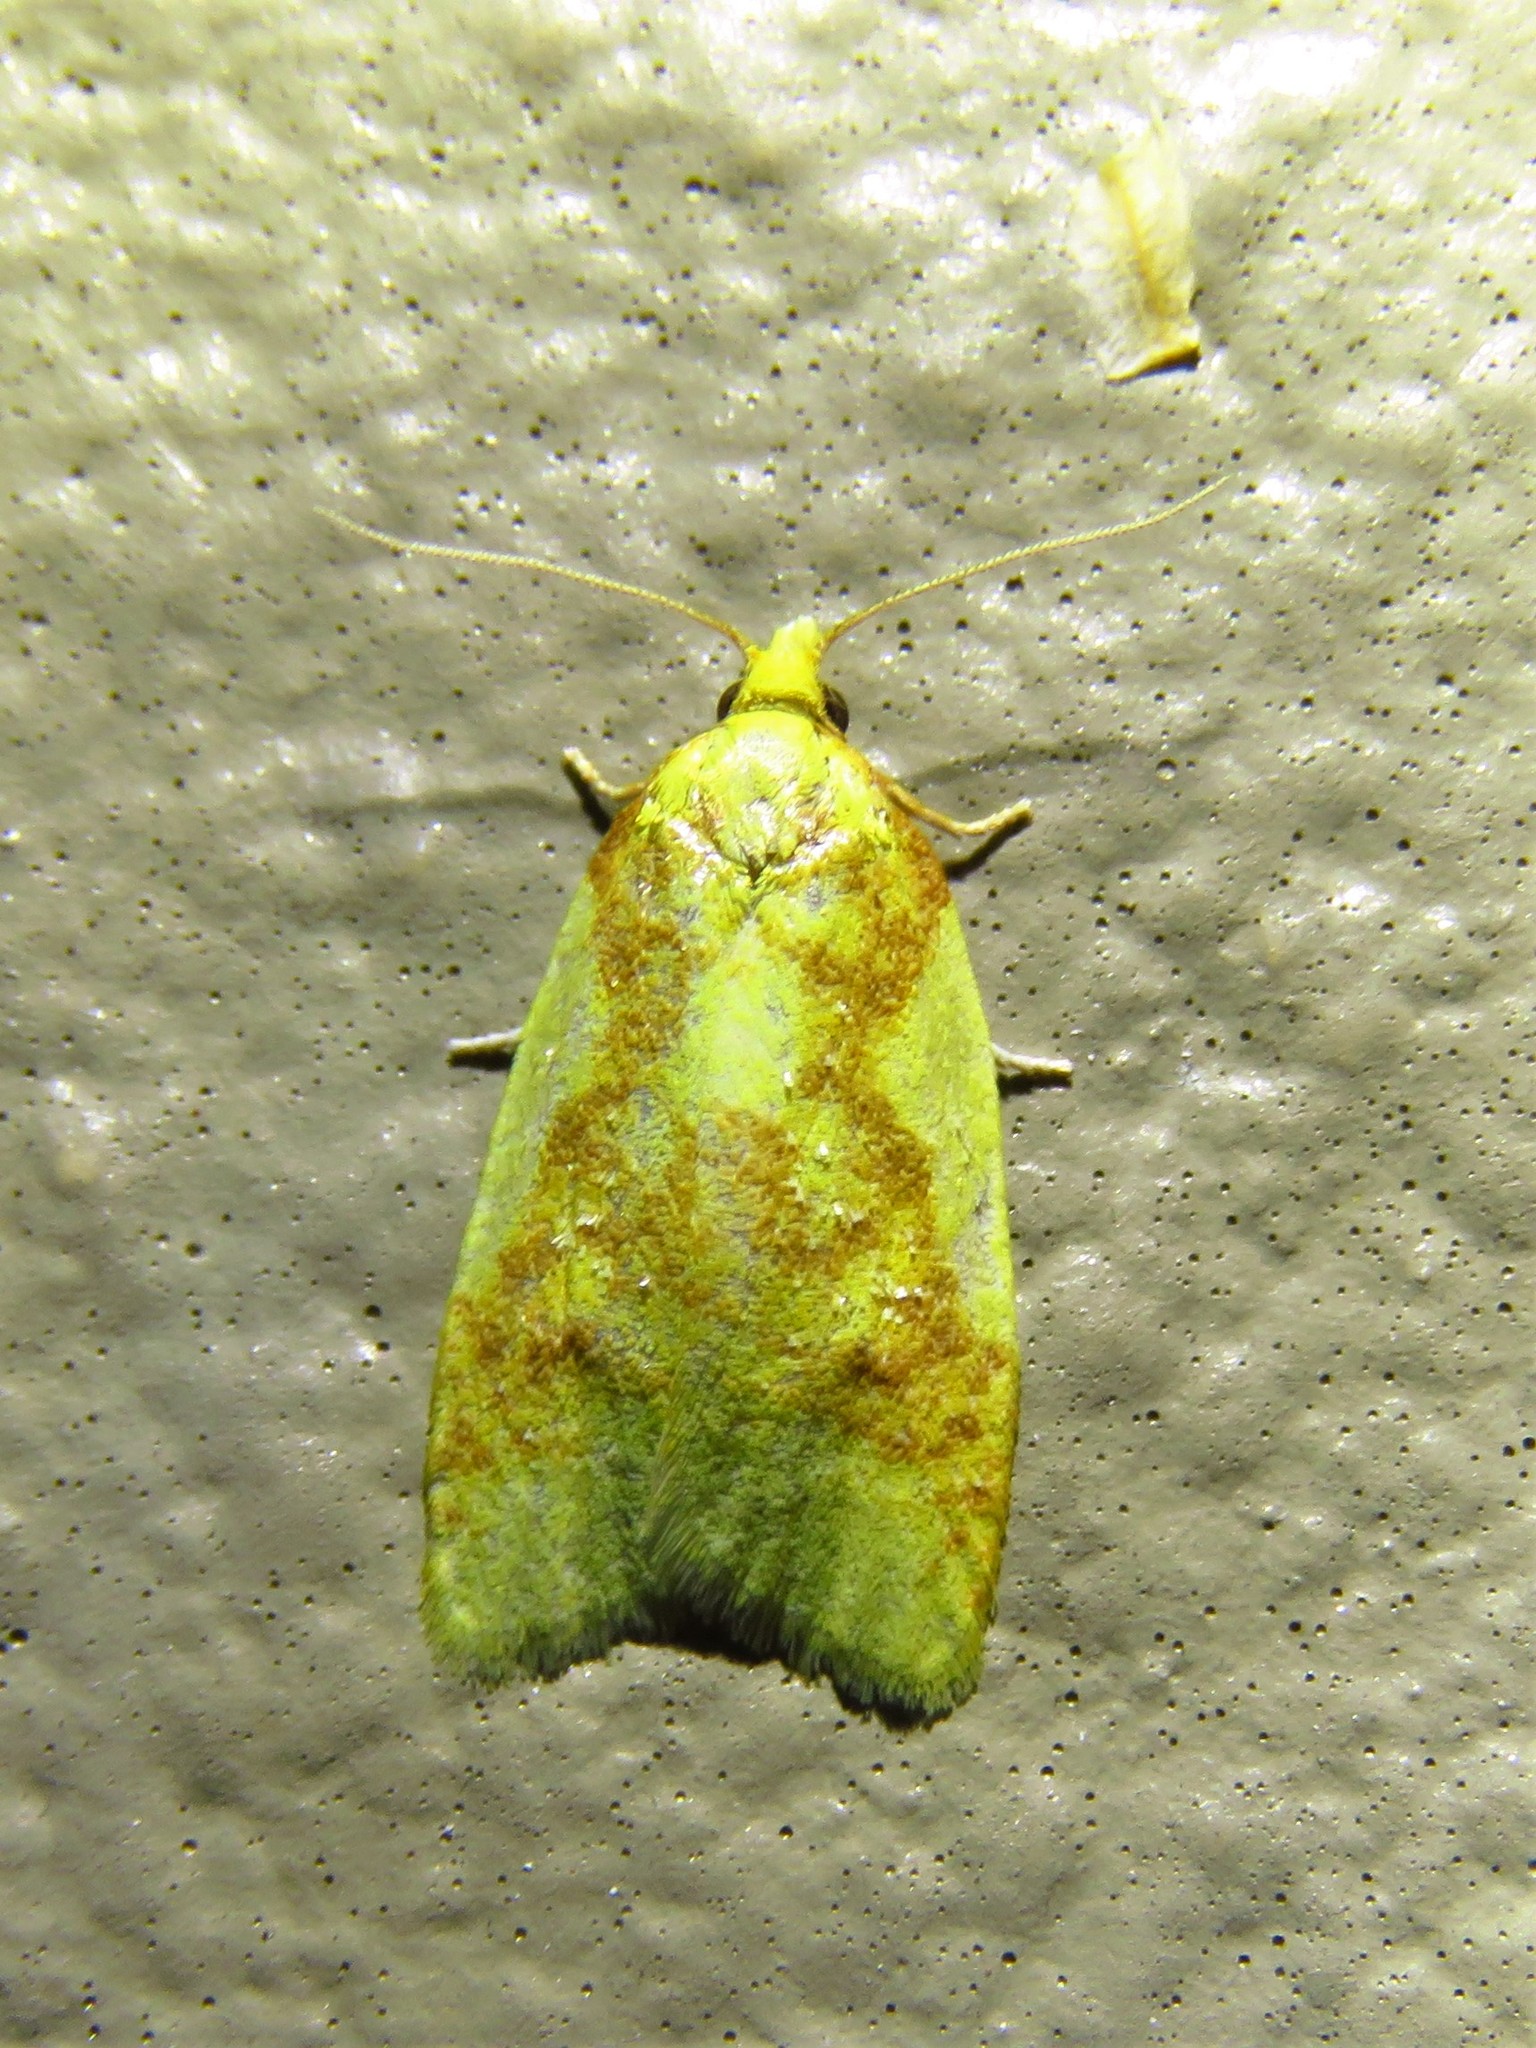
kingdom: Animalia
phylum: Arthropoda
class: Insecta
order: Lepidoptera
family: Tortricidae
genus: Sparganothis
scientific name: Sparganothis pulcherrimana
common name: Beautiful sparganothis
